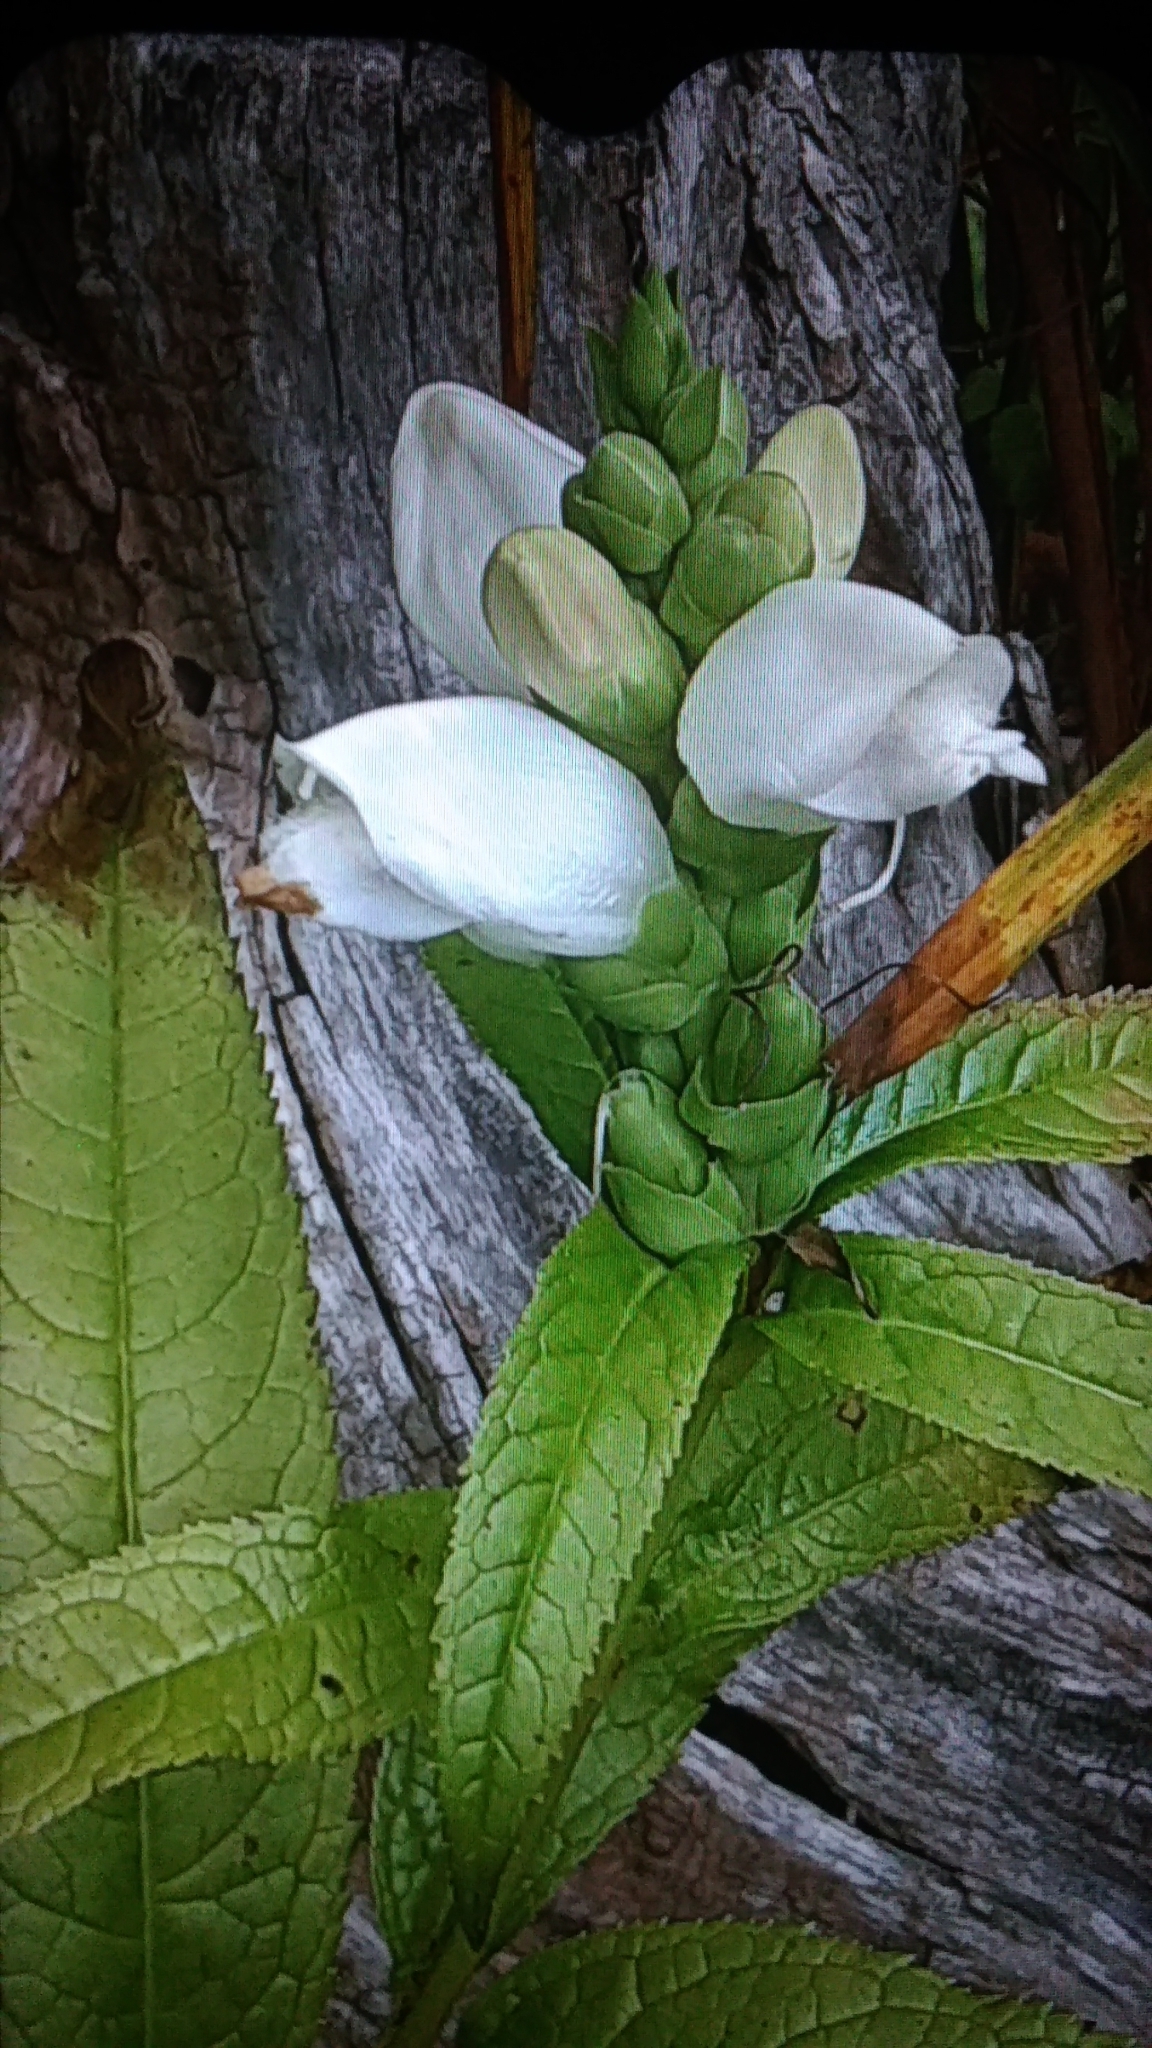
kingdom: Plantae
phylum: Tracheophyta
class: Magnoliopsida
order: Lamiales
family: Plantaginaceae
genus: Chelone
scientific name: Chelone glabra
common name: Snakehead
